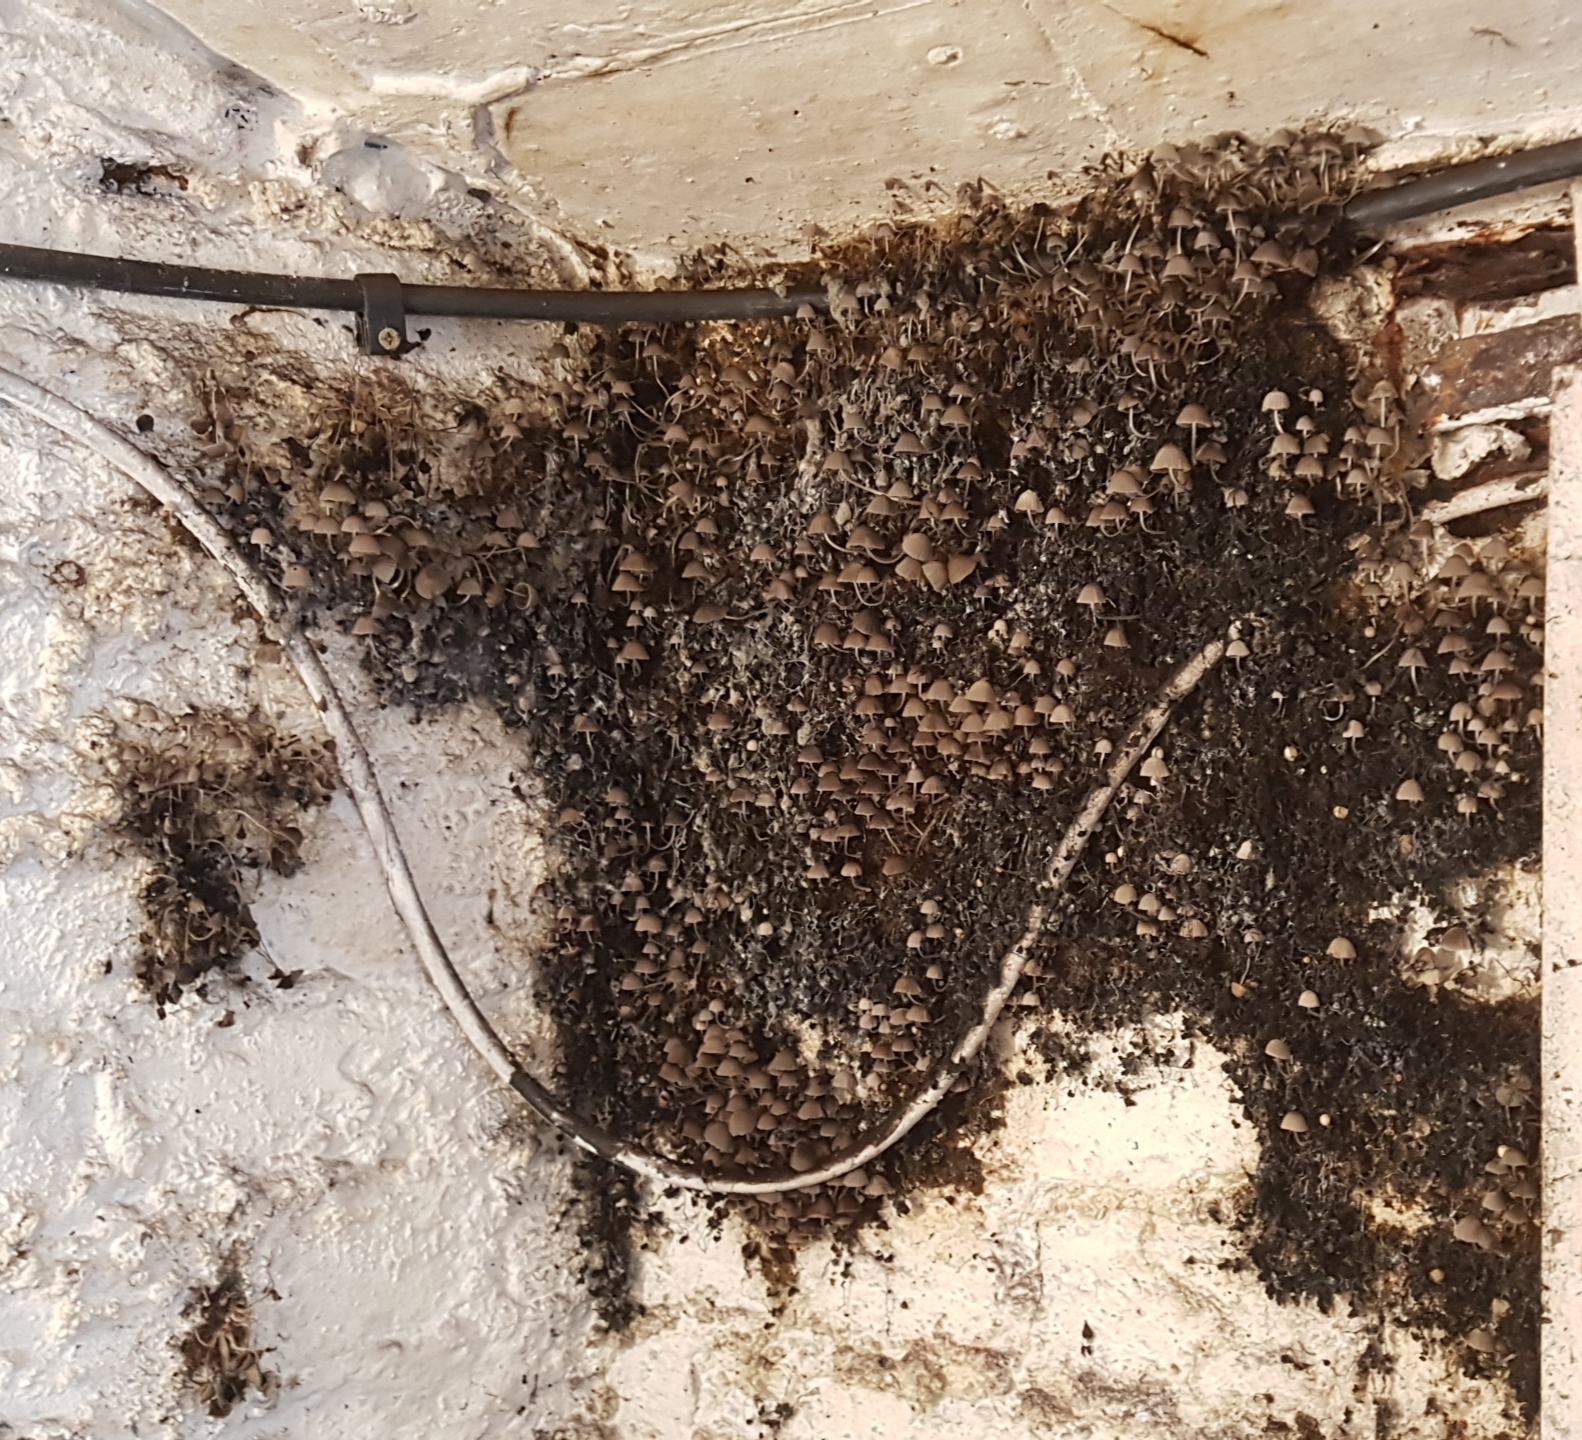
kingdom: Fungi
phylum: Basidiomycota
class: Agaricomycetes
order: Agaricales
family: Psathyrellaceae
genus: Coprinellus
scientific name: Coprinellus disseminatus
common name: Fairies' bonnets
